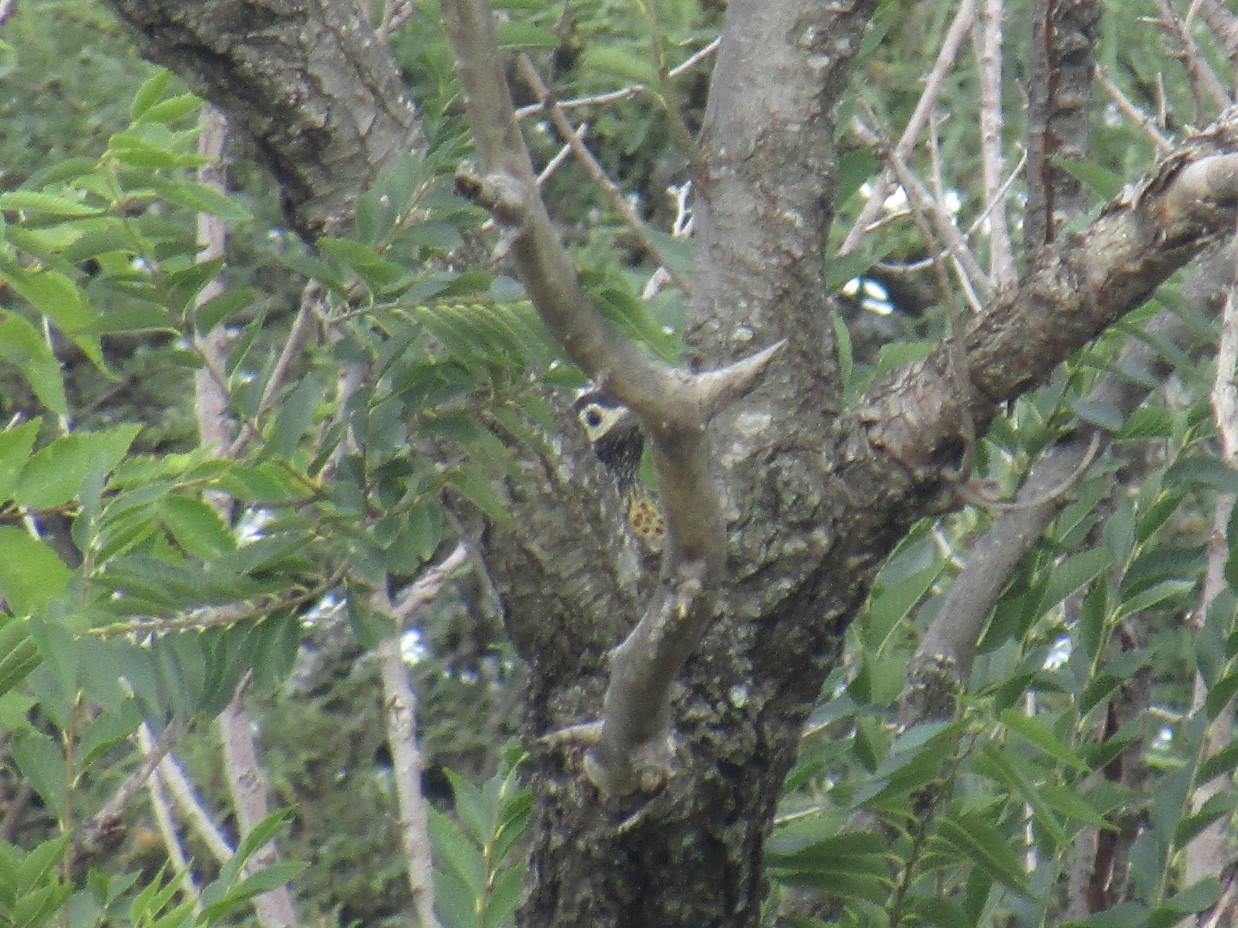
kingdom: Animalia
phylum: Chordata
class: Aves
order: Piciformes
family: Picidae
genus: Colaptes
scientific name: Colaptes melanochloros
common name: Green-barred woodpecker
